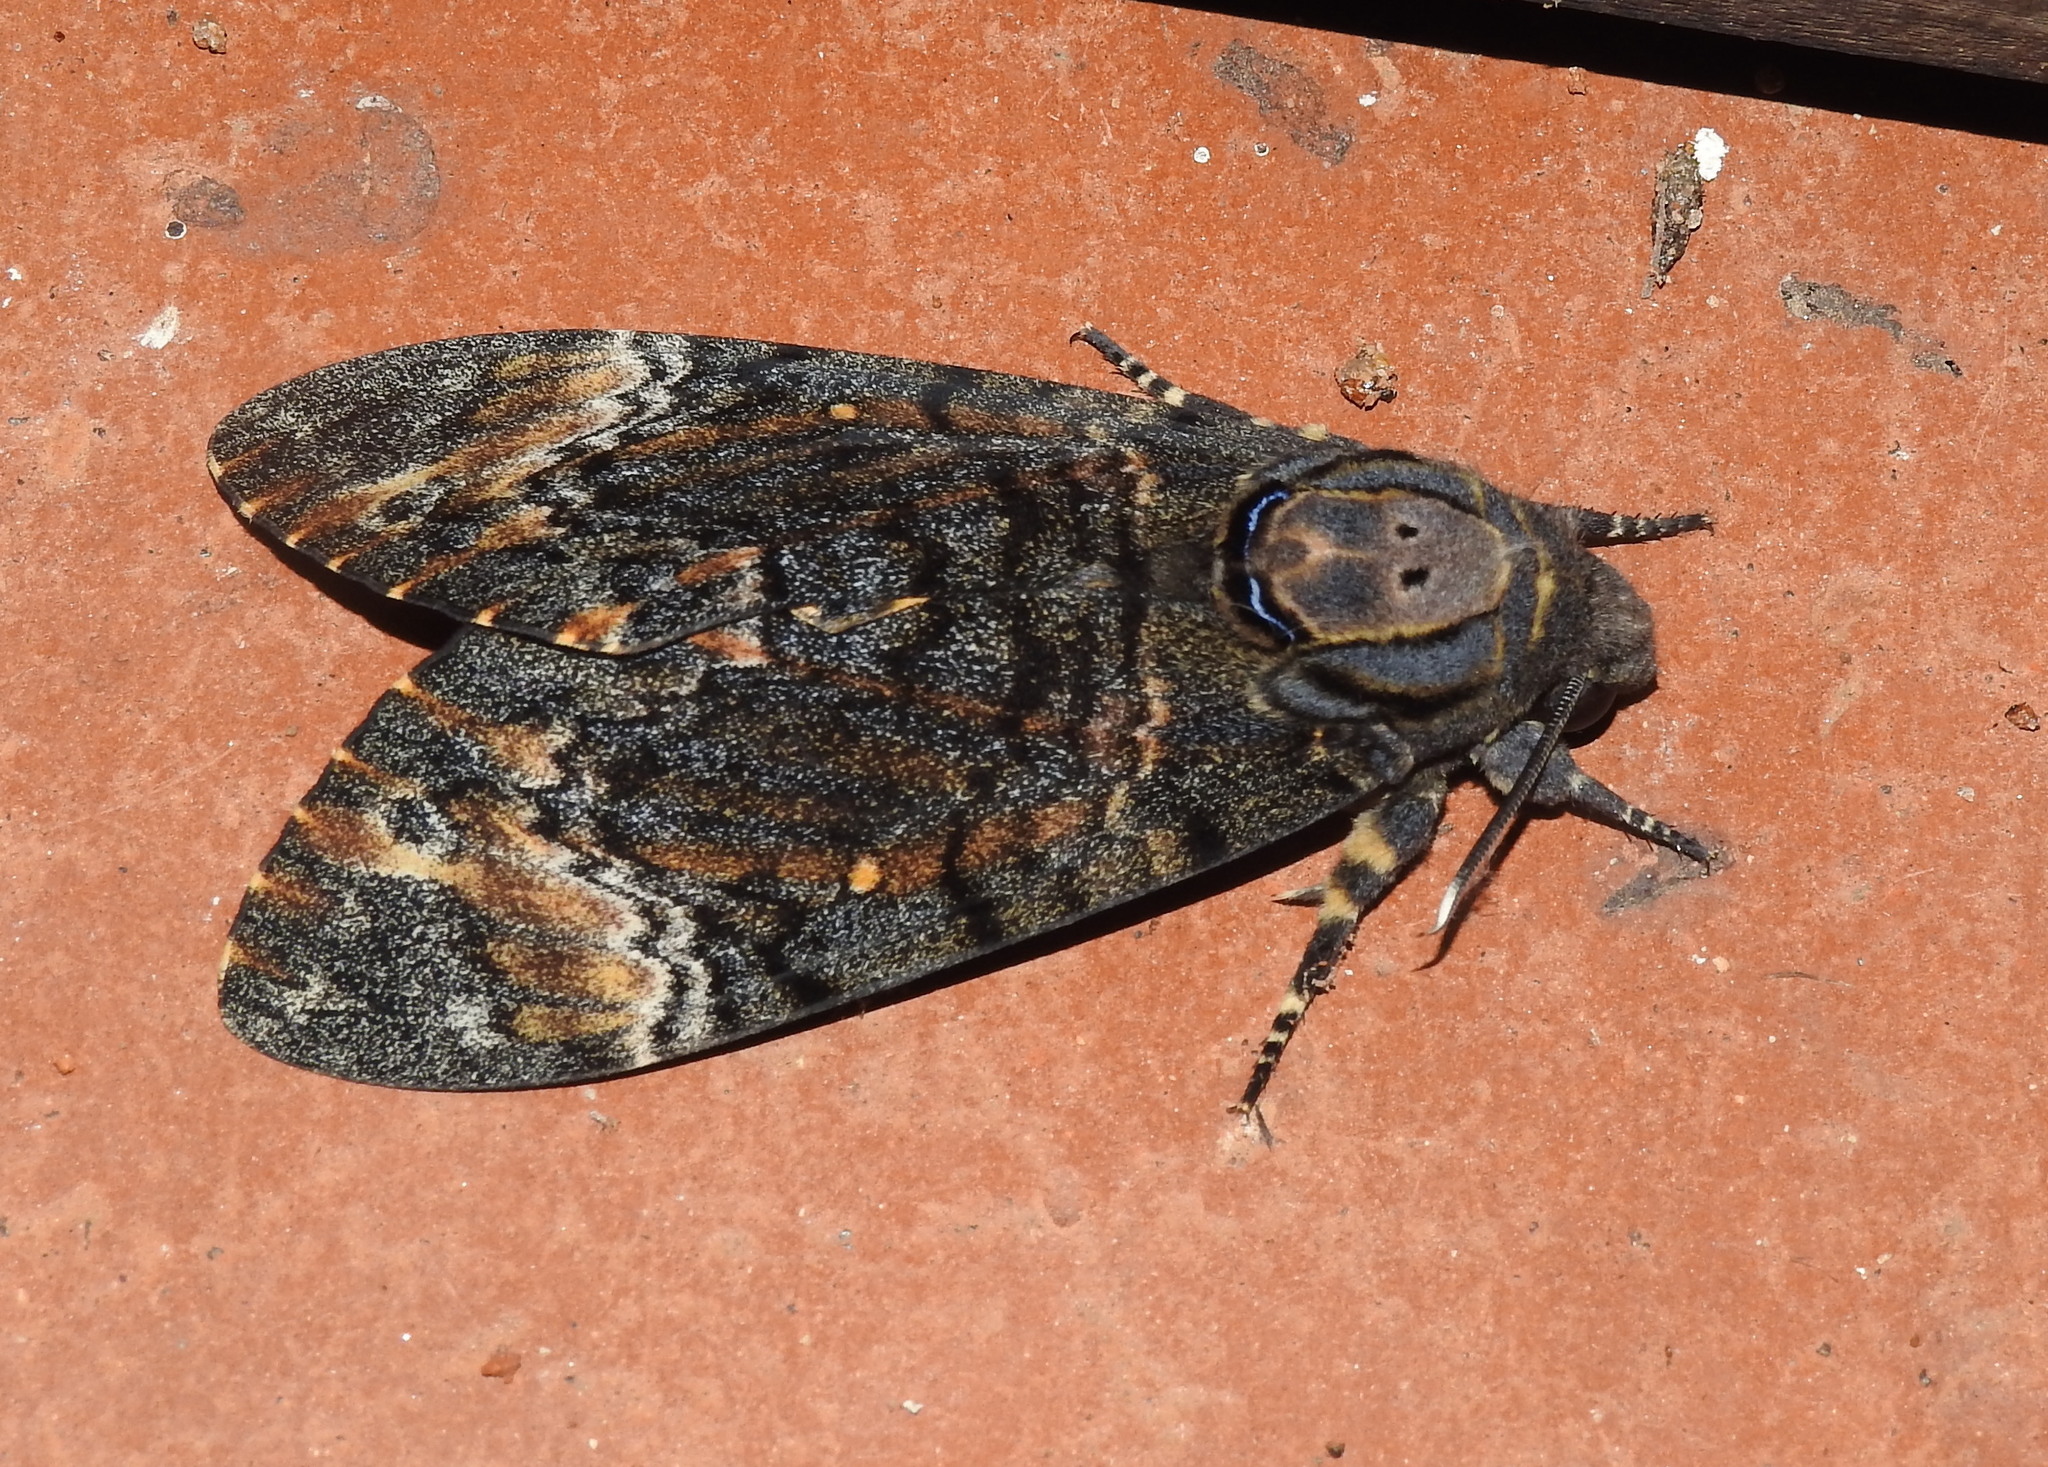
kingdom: Animalia
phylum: Arthropoda
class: Insecta
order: Lepidoptera
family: Sphingidae
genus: Acherontia
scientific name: Acherontia styx
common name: Death's-head hawk moth
